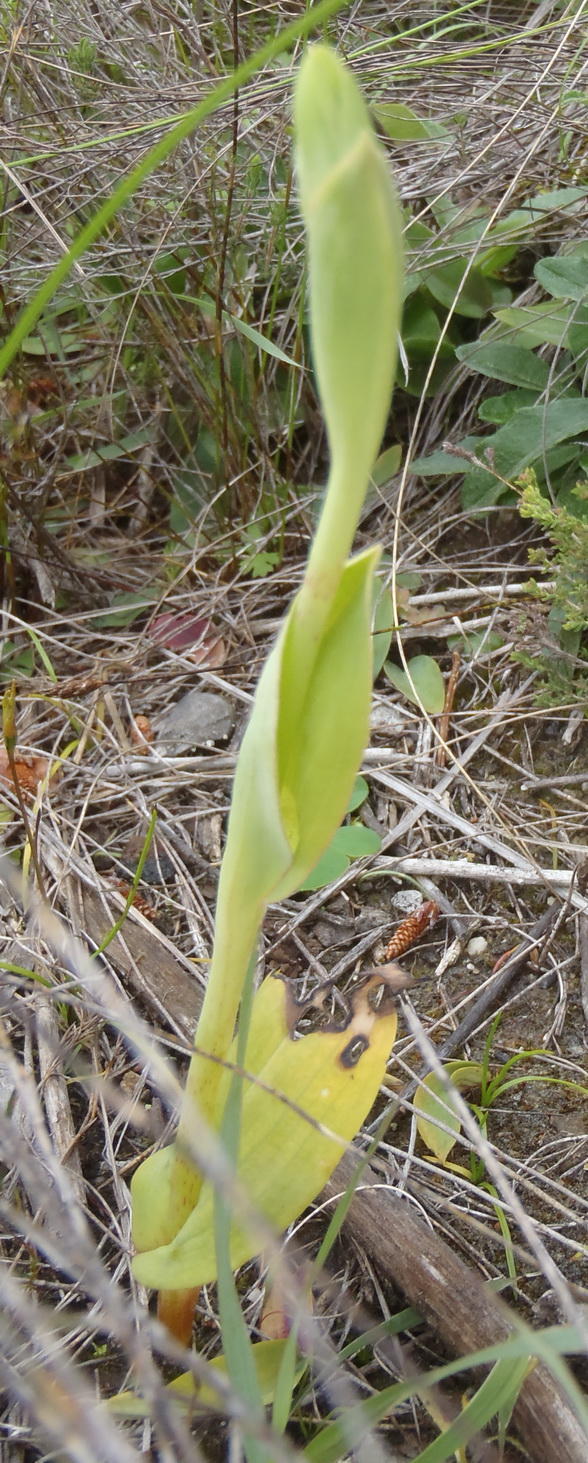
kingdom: Plantae
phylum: Tracheophyta
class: Liliopsida
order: Asparagales
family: Orchidaceae
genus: Pterygodium
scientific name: Pterygodium cleistogamum
